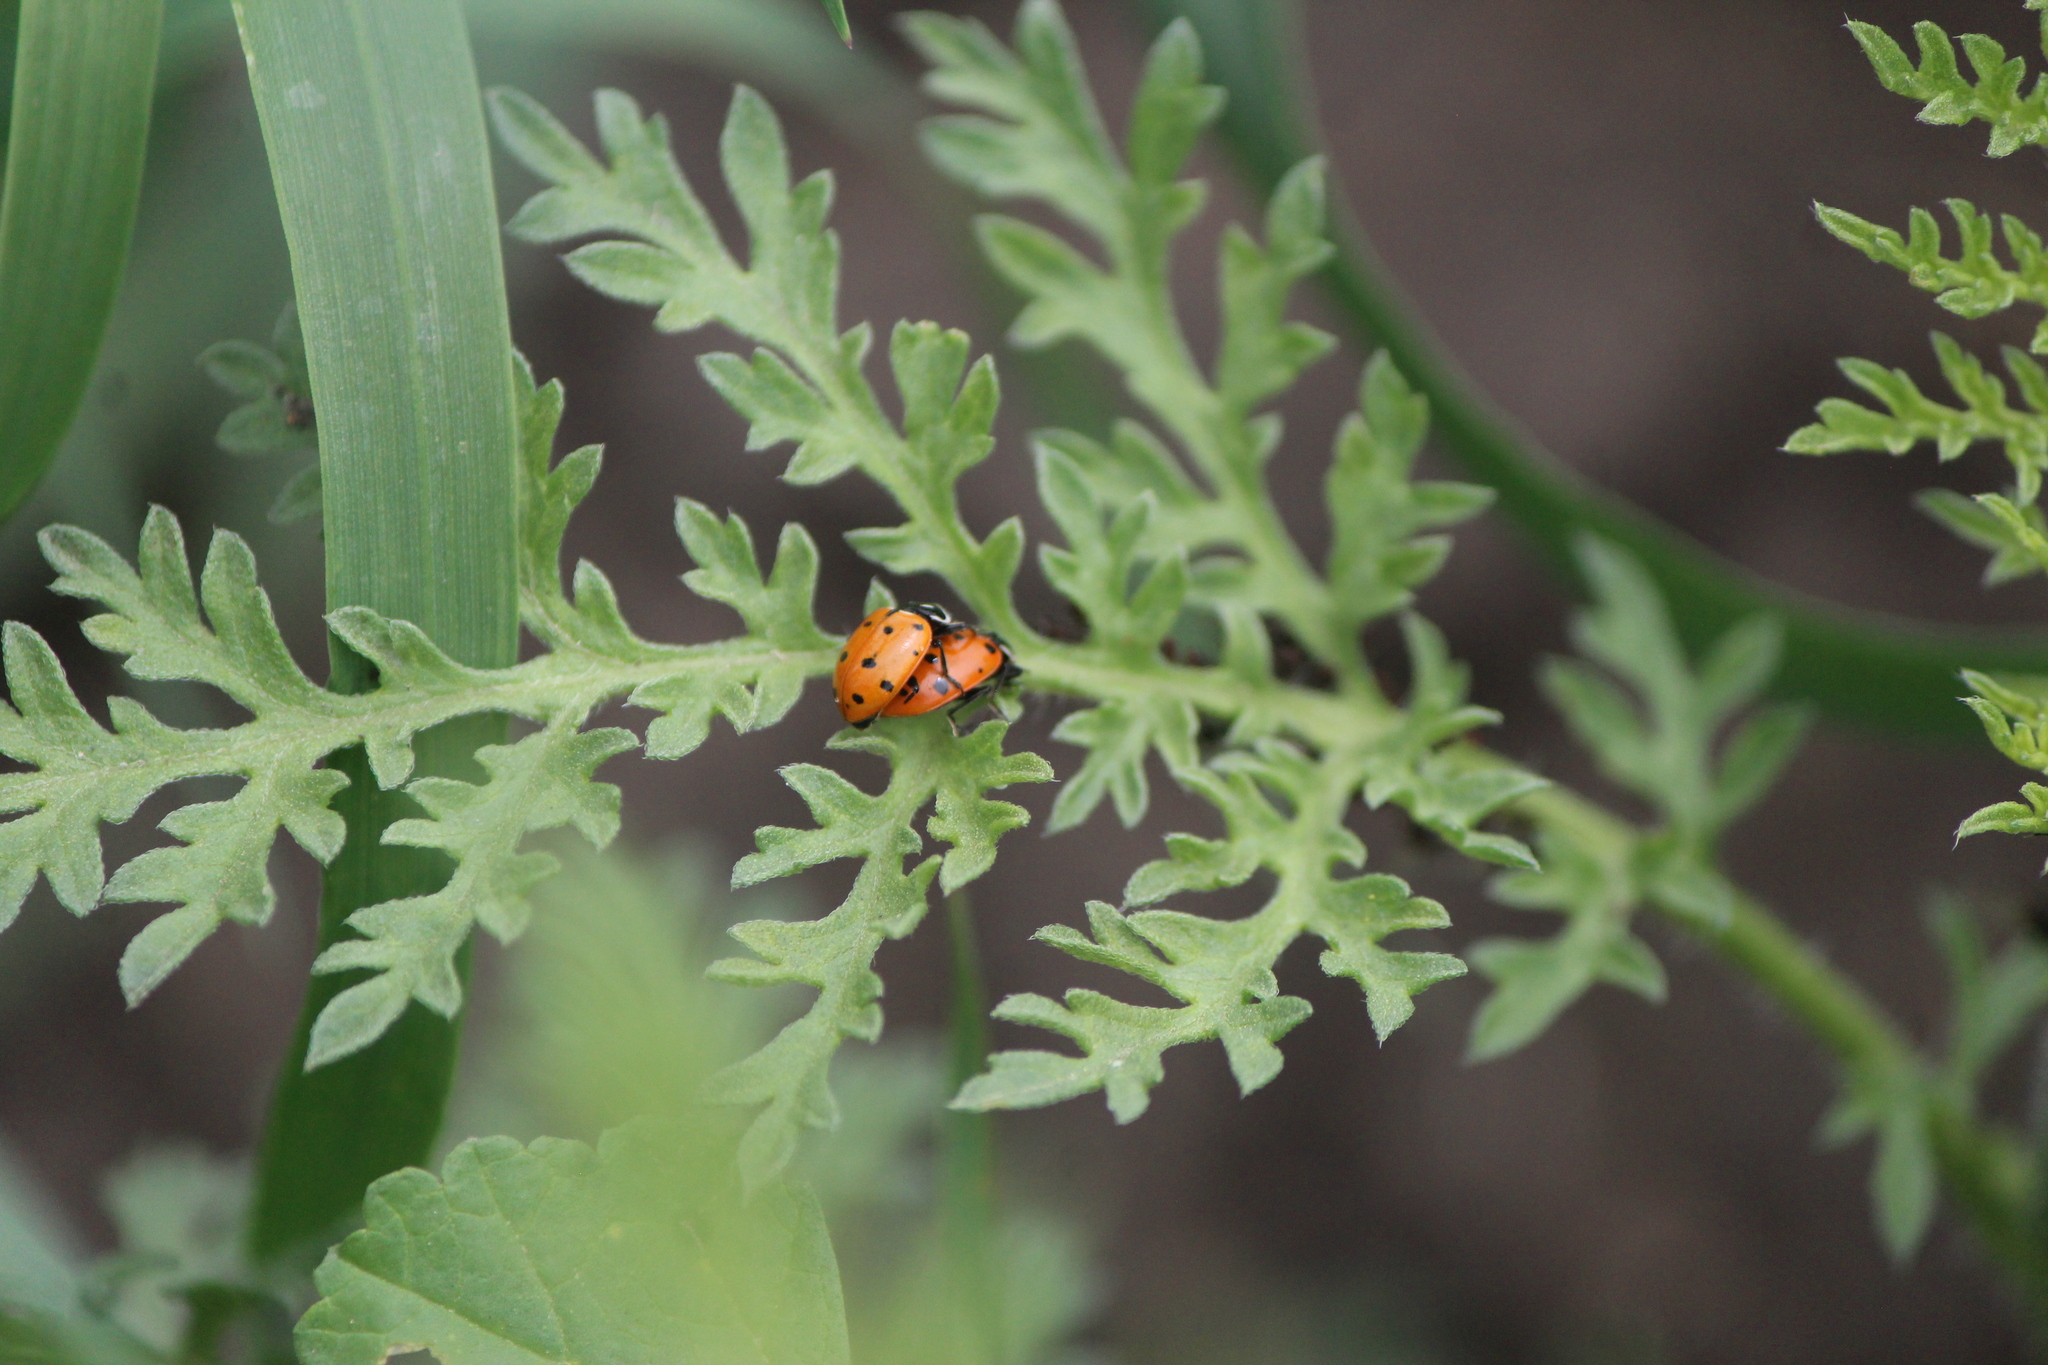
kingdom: Animalia
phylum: Arthropoda
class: Insecta
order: Coleoptera
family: Coccinellidae
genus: Hippodamia
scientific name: Hippodamia convergens
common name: Convergent lady beetle
